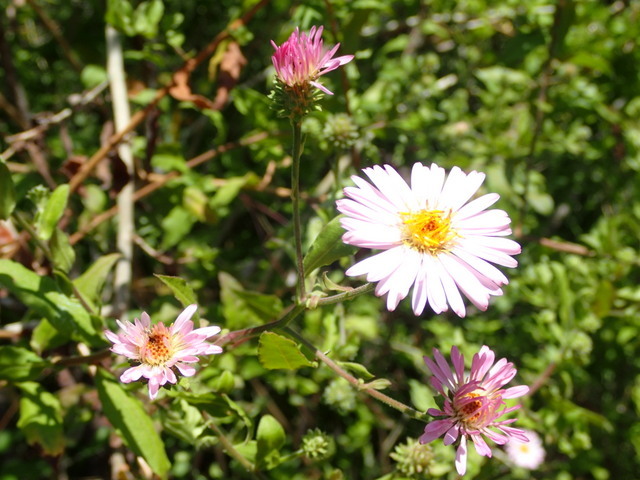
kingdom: Plantae
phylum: Tracheophyta
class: Magnoliopsida
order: Asterales
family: Asteraceae
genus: Ampelaster
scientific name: Ampelaster carolinianus
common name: Climbing aster
